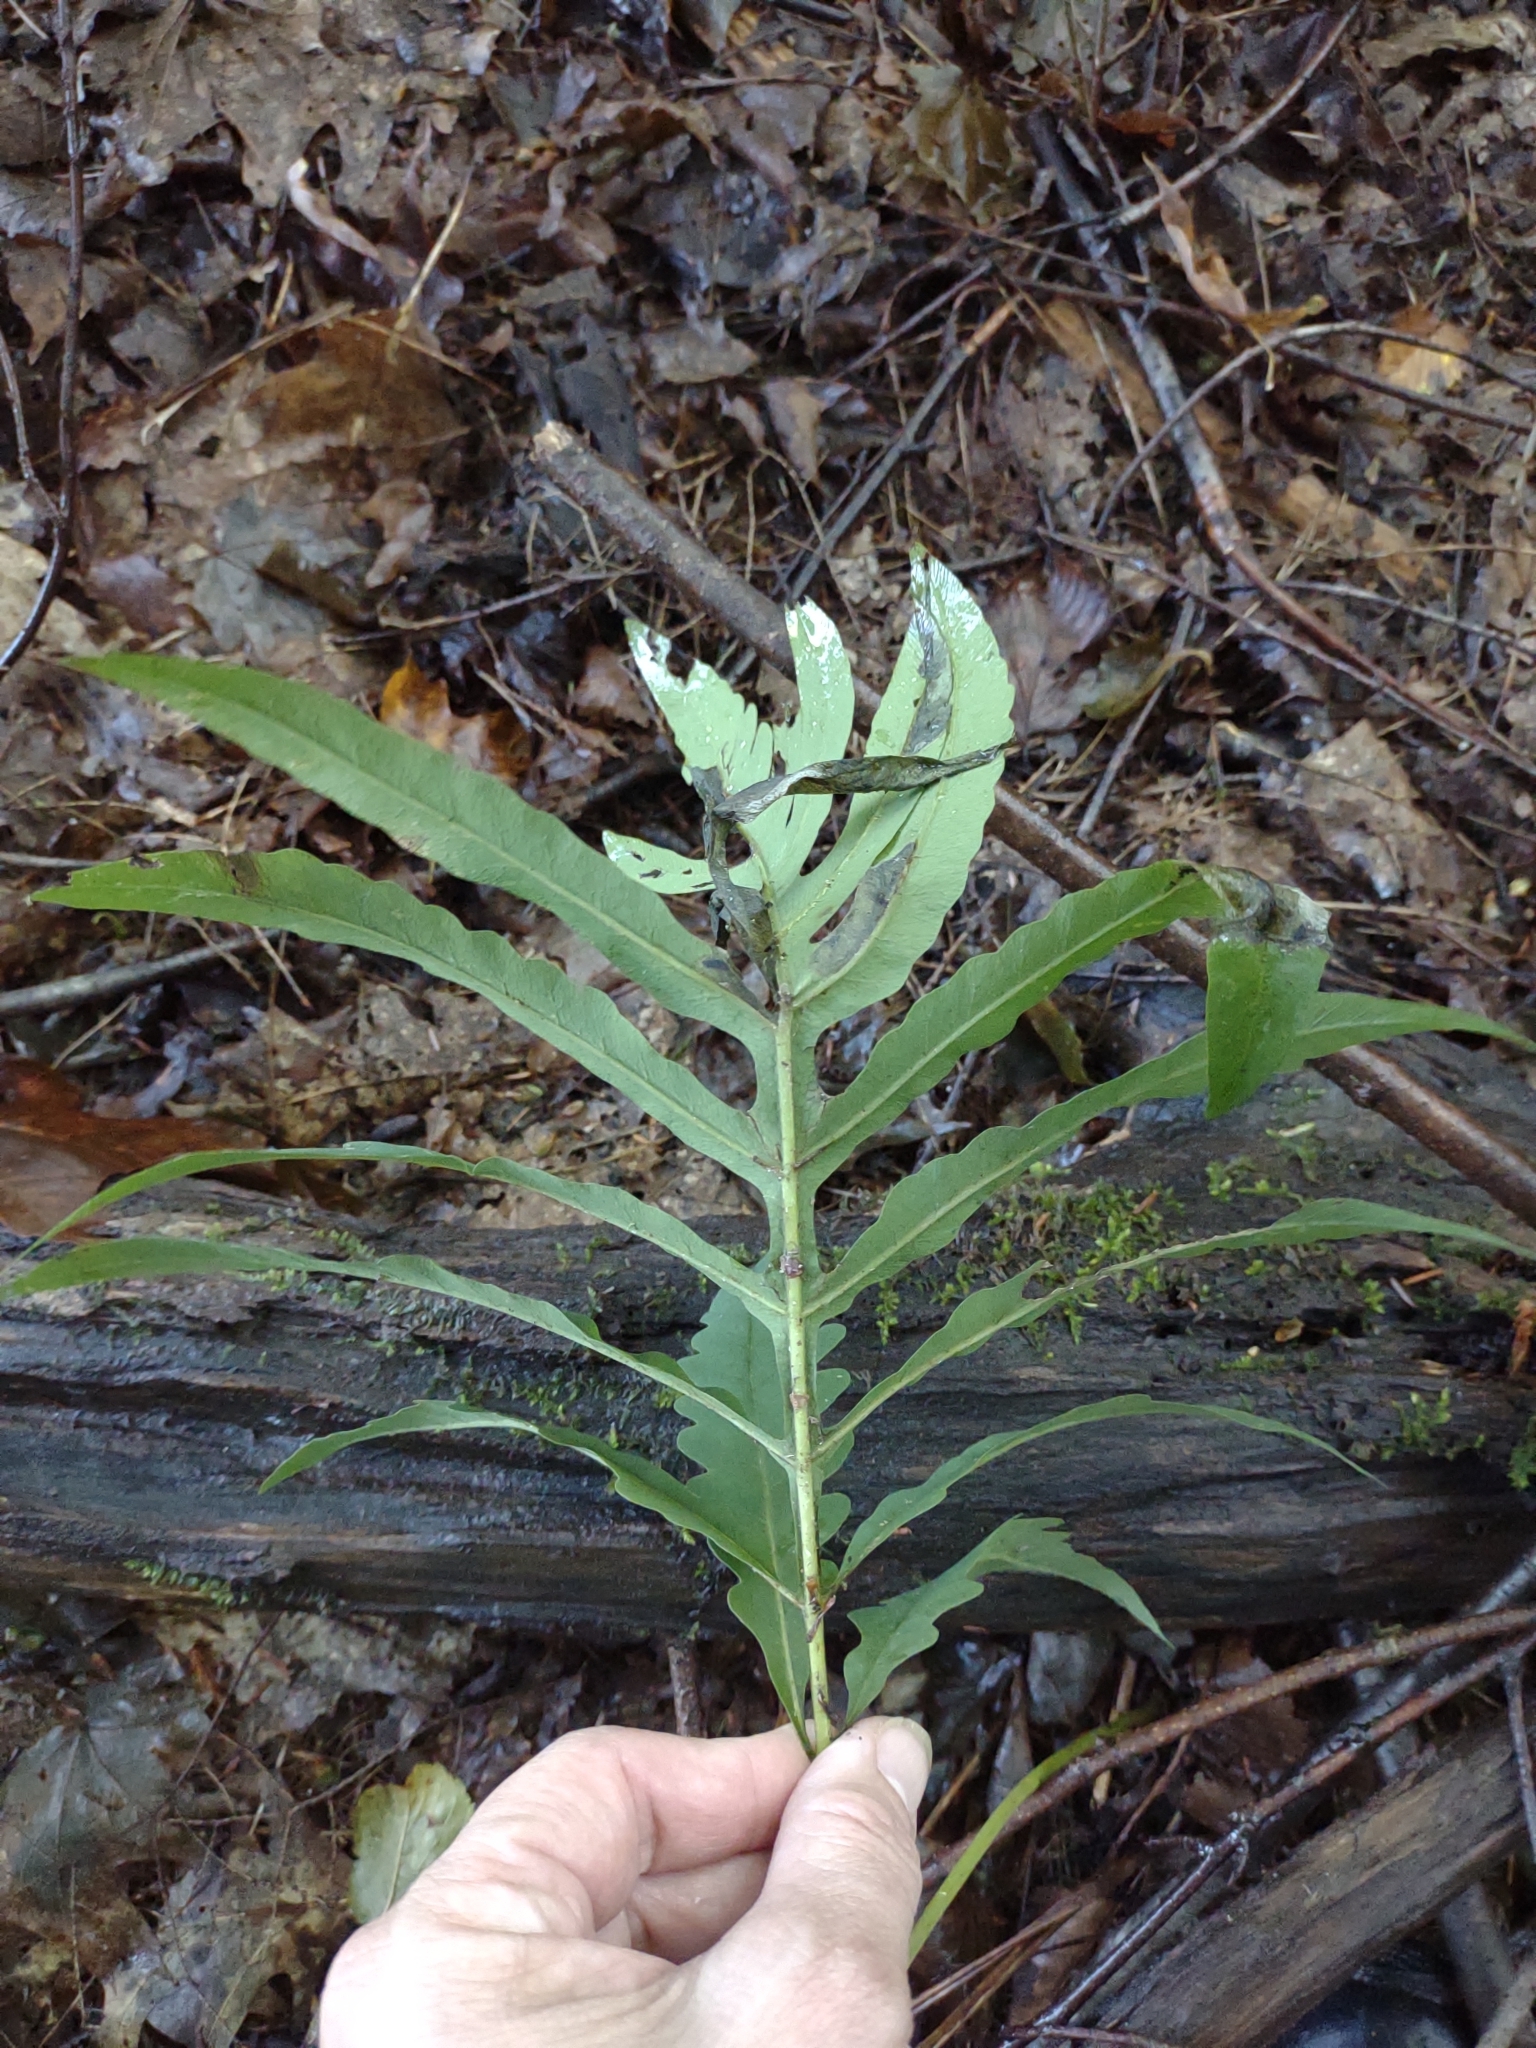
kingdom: Plantae
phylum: Tracheophyta
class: Polypodiopsida
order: Polypodiales
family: Onocleaceae
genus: Onoclea
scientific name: Onoclea sensibilis
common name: Sensitive fern
